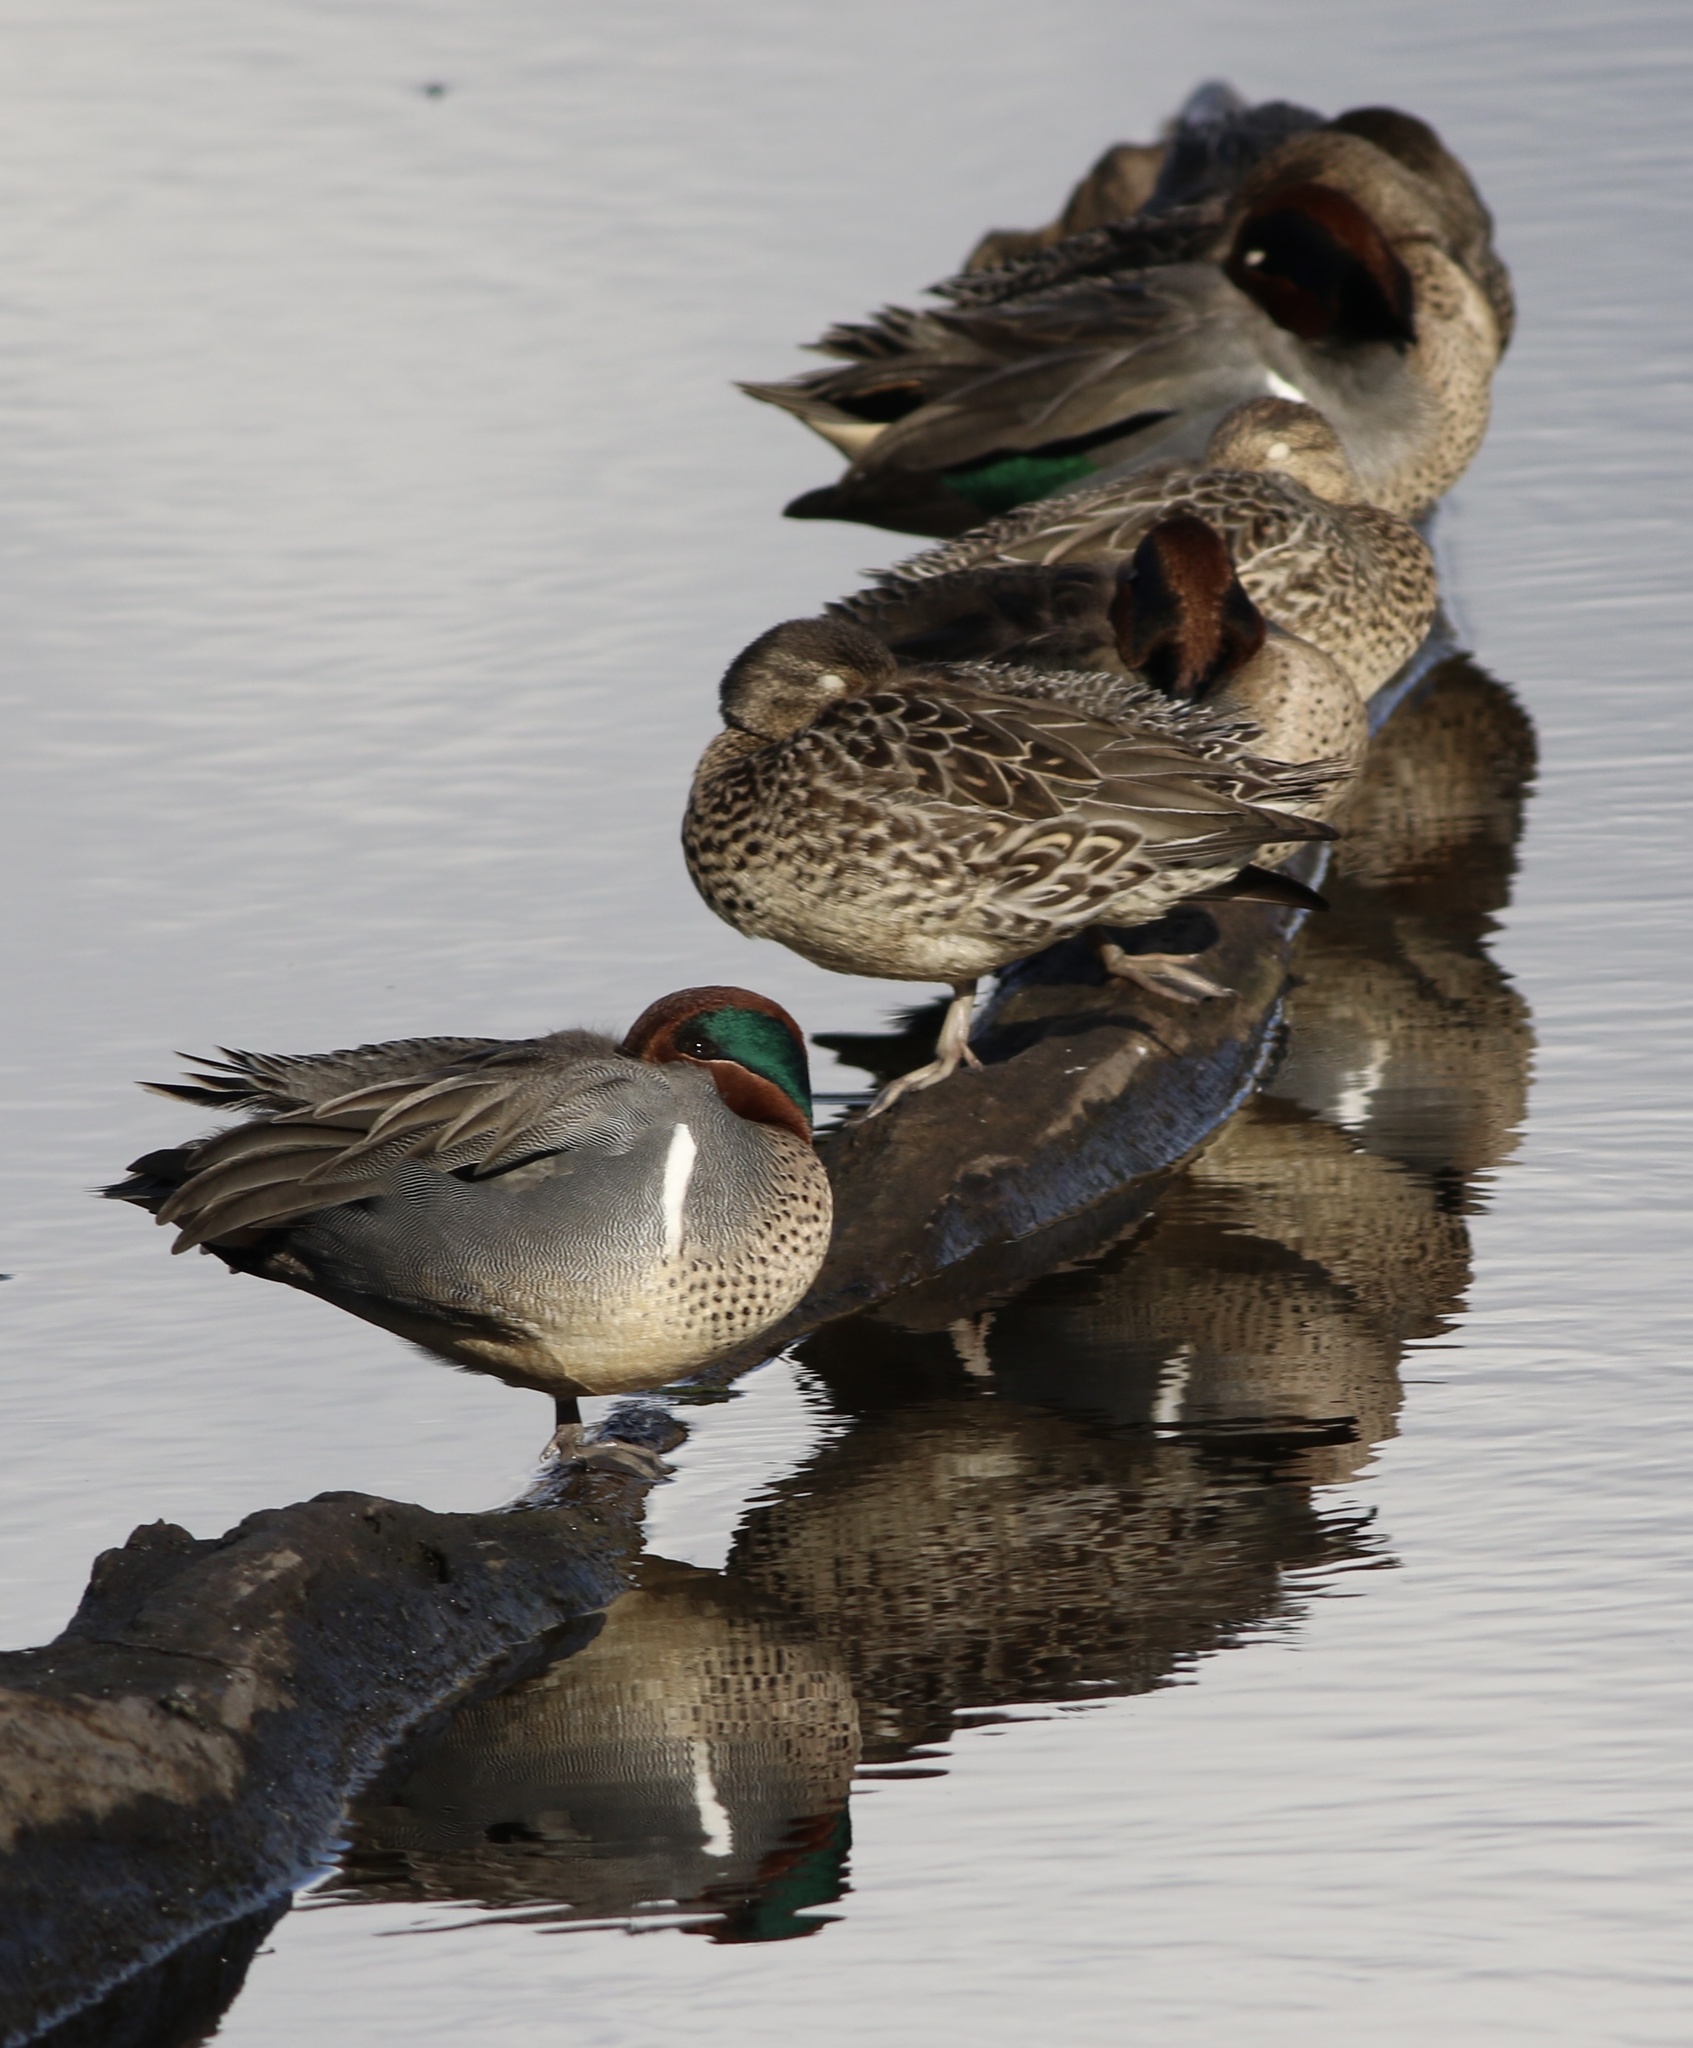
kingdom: Animalia
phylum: Chordata
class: Aves
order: Anseriformes
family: Anatidae
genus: Anas
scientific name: Anas crecca
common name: Eurasian teal
